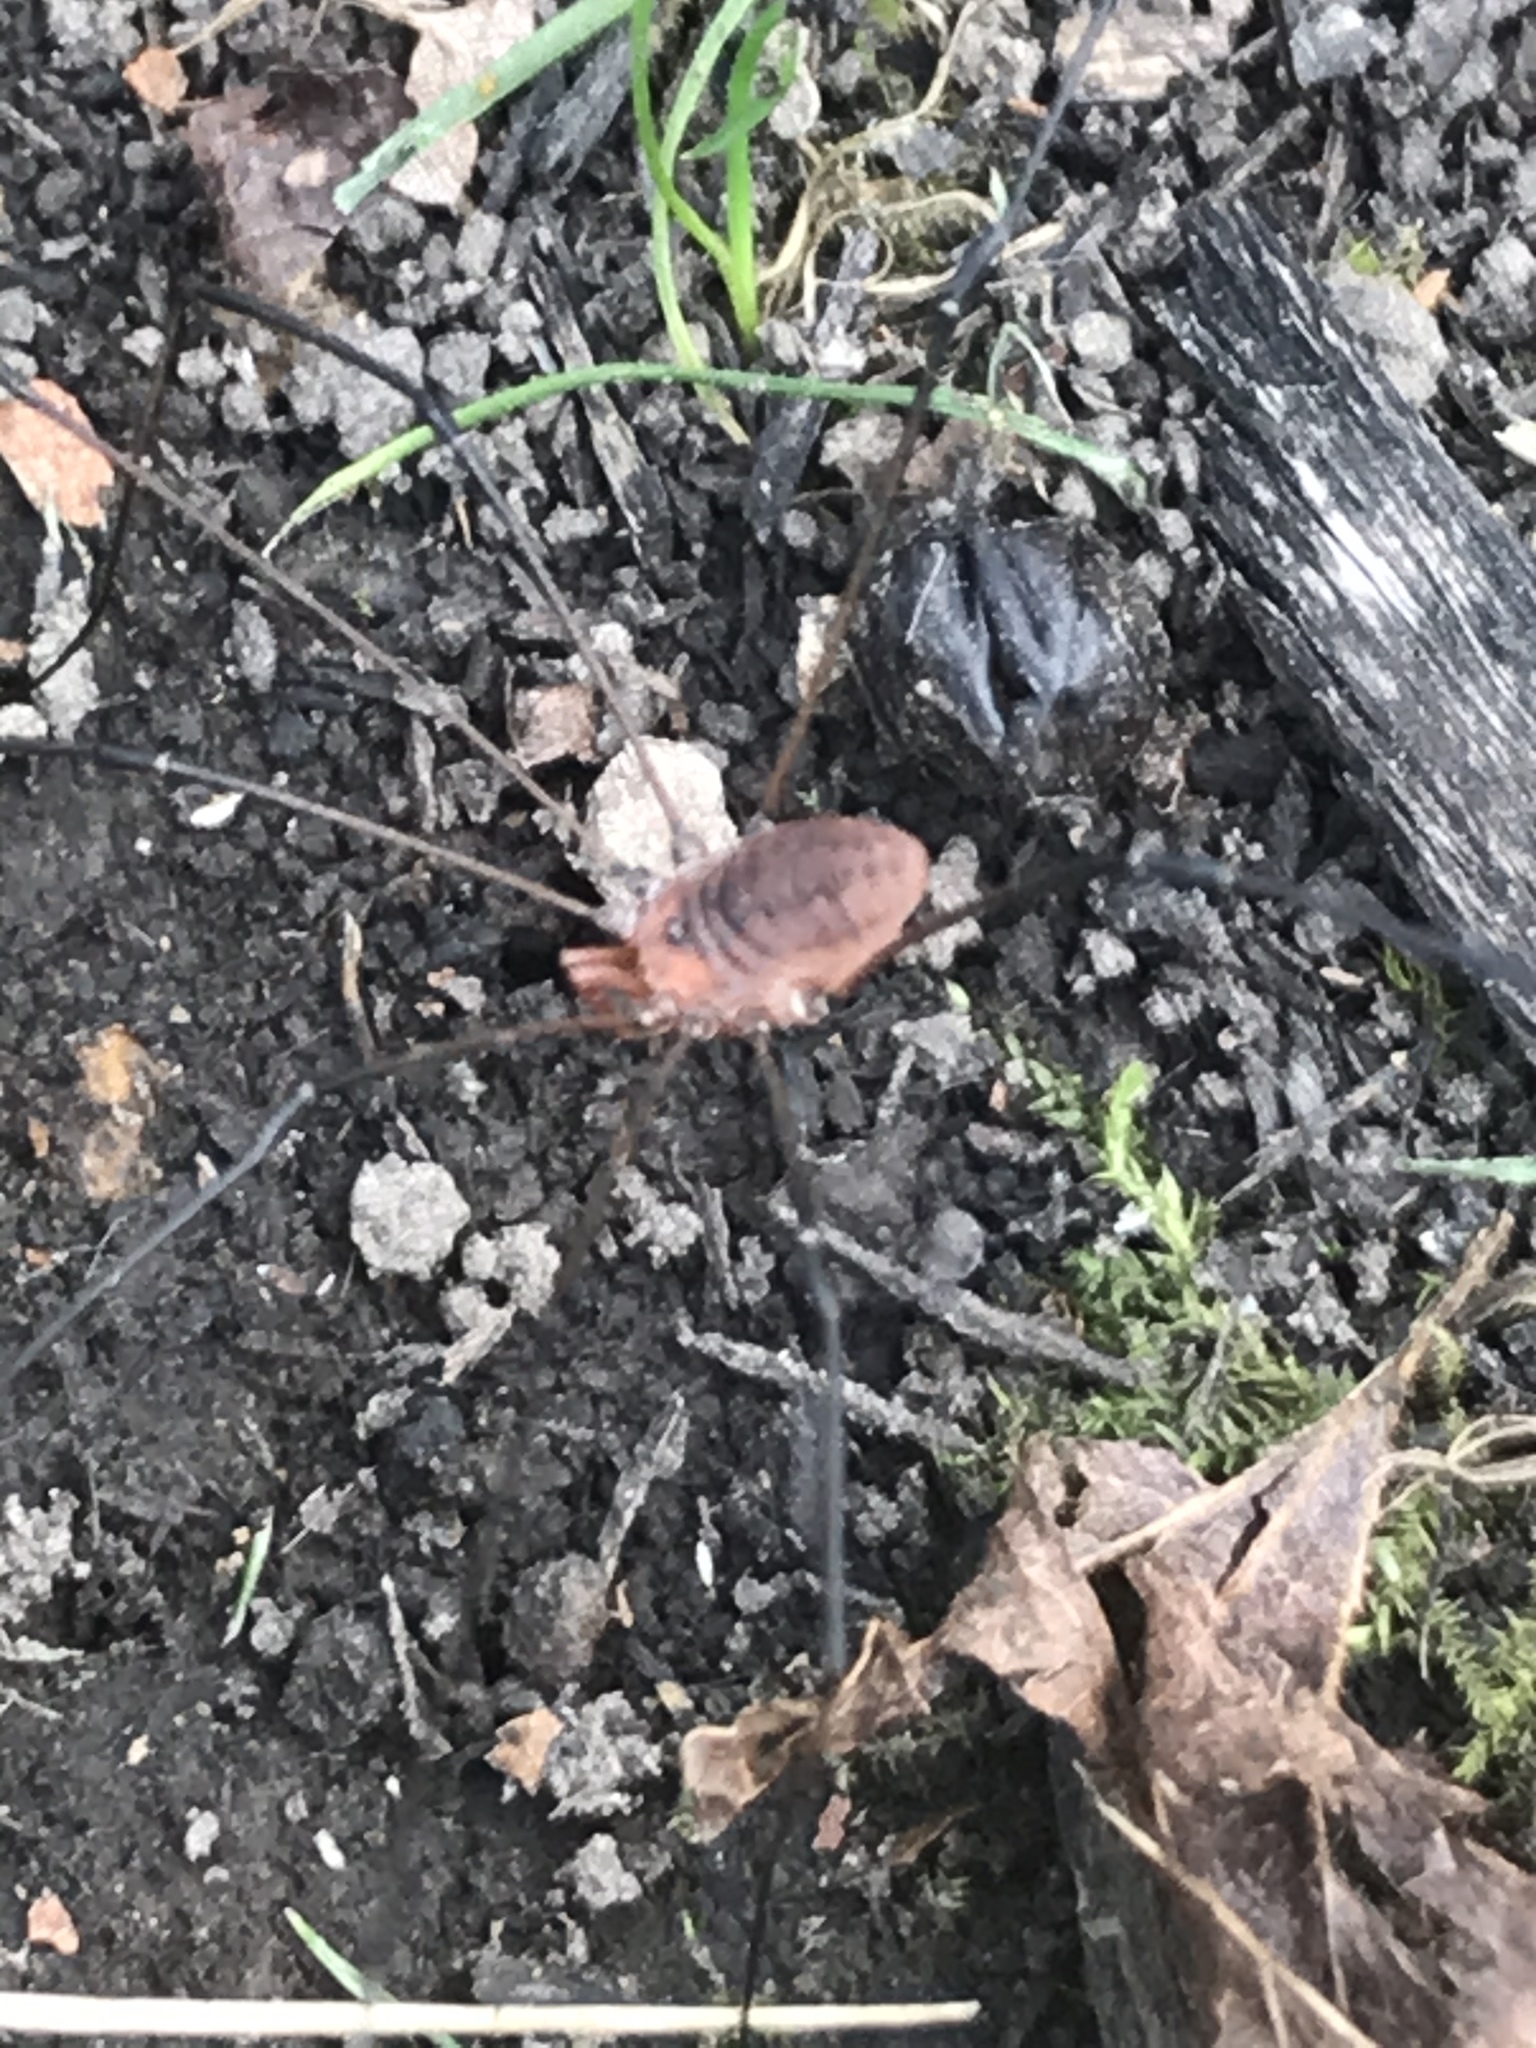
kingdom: Animalia
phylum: Arthropoda
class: Arachnida
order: Opiliones
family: Sclerosomatidae
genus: Leiobunum
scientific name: Leiobunum vittatum
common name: Eastern harvestman
